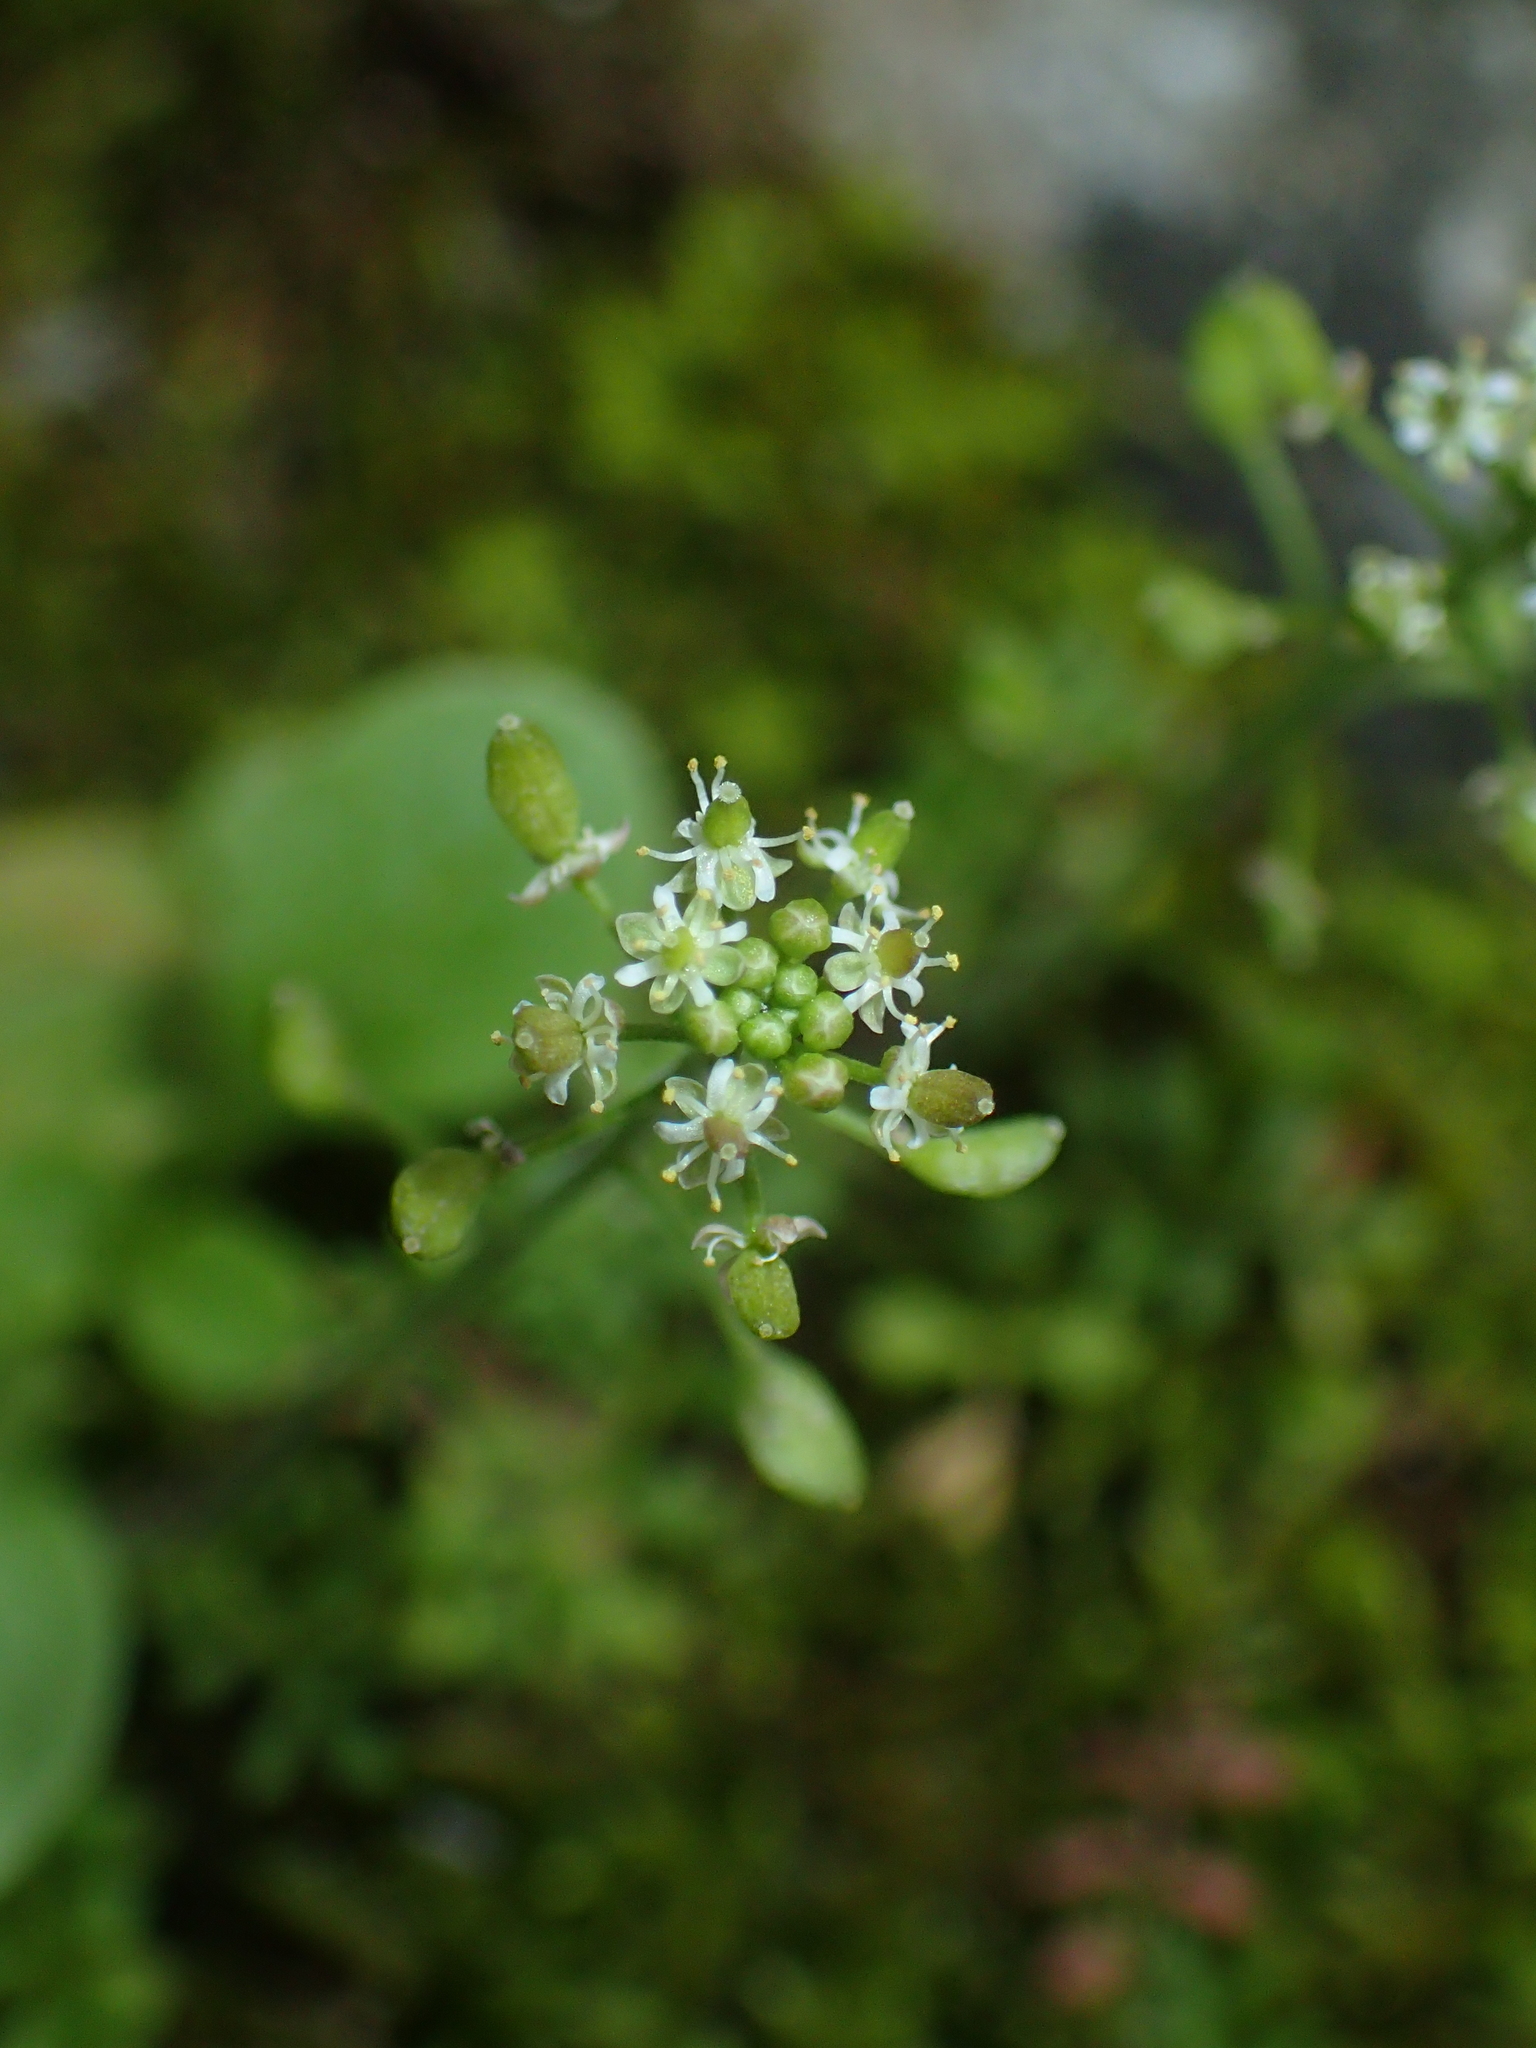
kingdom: Plantae
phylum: Tracheophyta
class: Magnoliopsida
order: Brassicales
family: Brassicaceae
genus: Hornungia
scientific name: Hornungia petraea
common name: Hutchinsia
